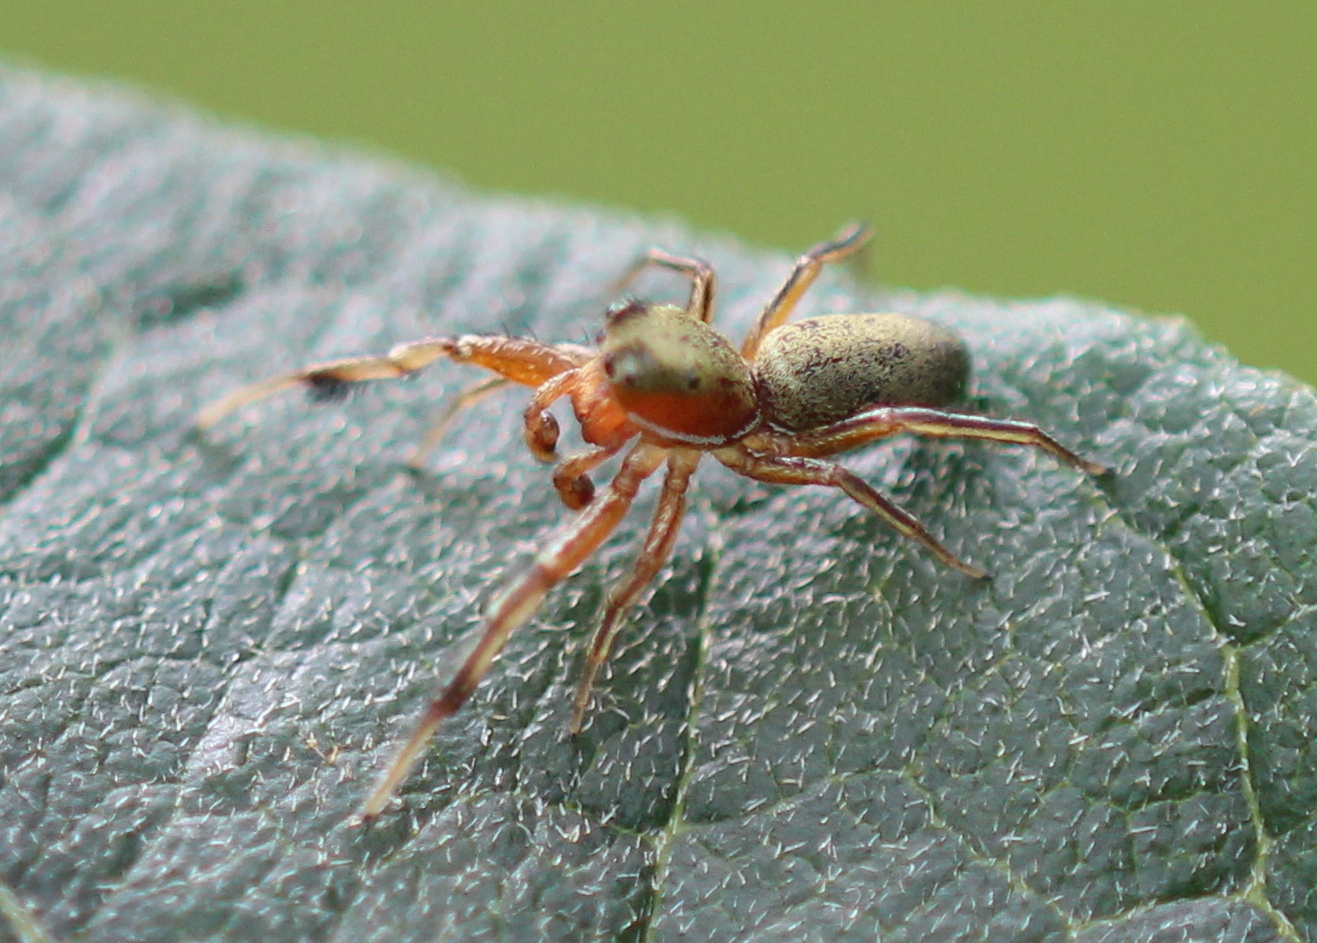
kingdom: Animalia
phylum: Arthropoda
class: Arachnida
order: Araneae
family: Salticidae
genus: Tutelina
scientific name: Tutelina elegans
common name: Thin-spined jumping spider
